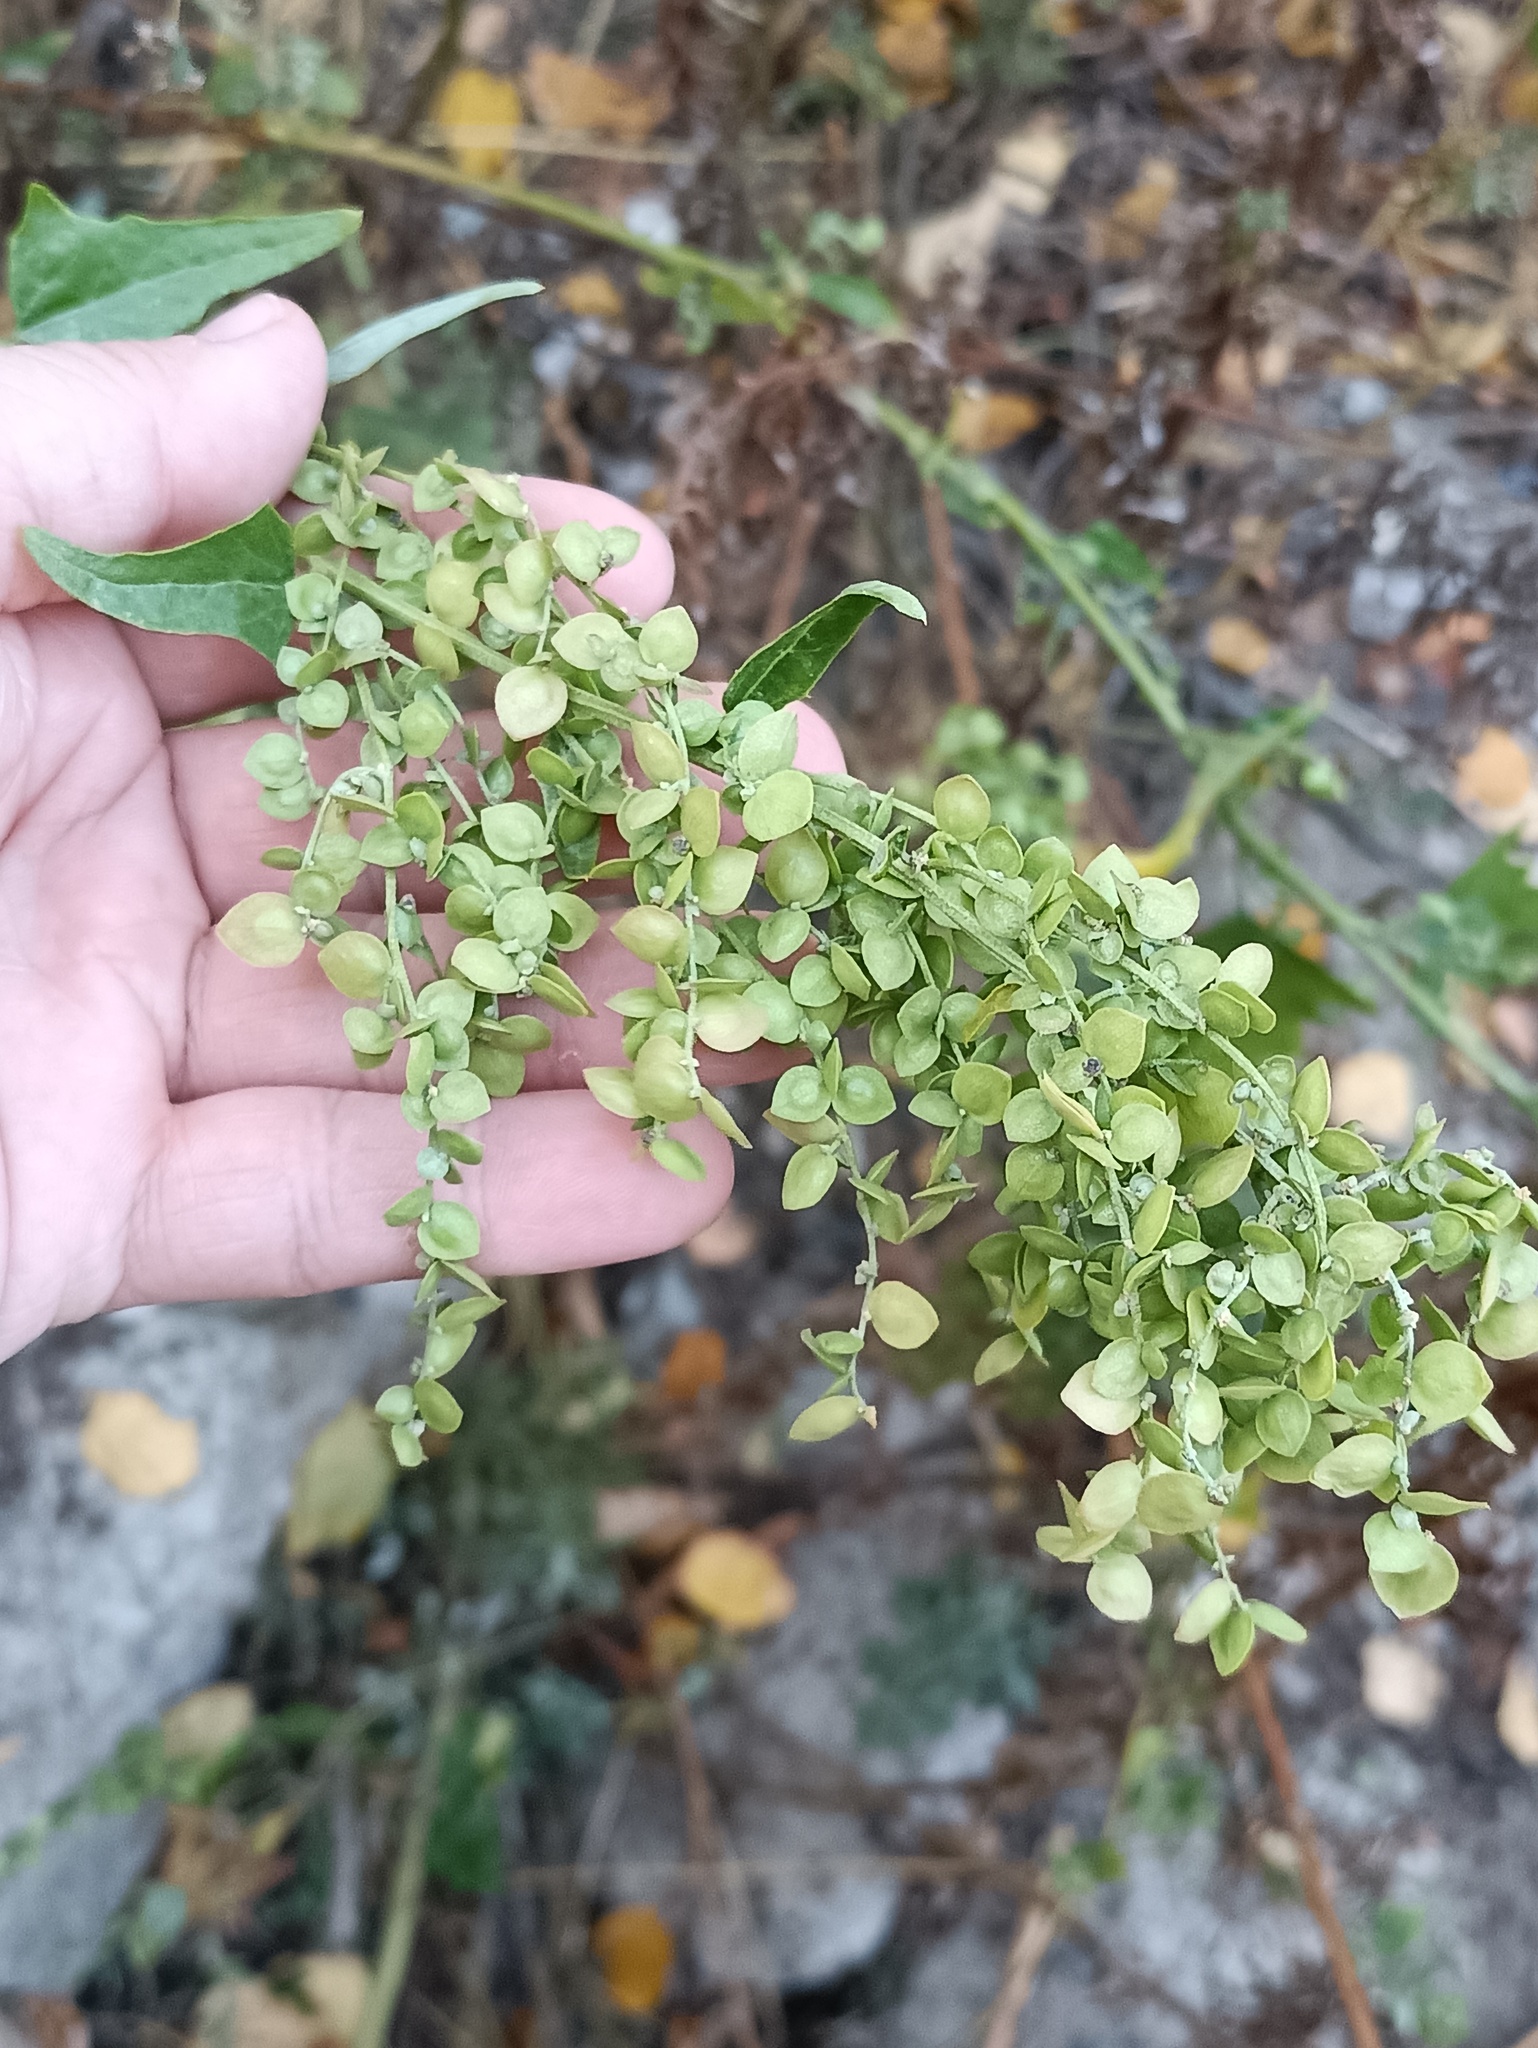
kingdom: Plantae
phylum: Tracheophyta
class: Magnoliopsida
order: Caryophyllales
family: Amaranthaceae
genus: Atriplex
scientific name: Atriplex sagittata
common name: Purple orache
